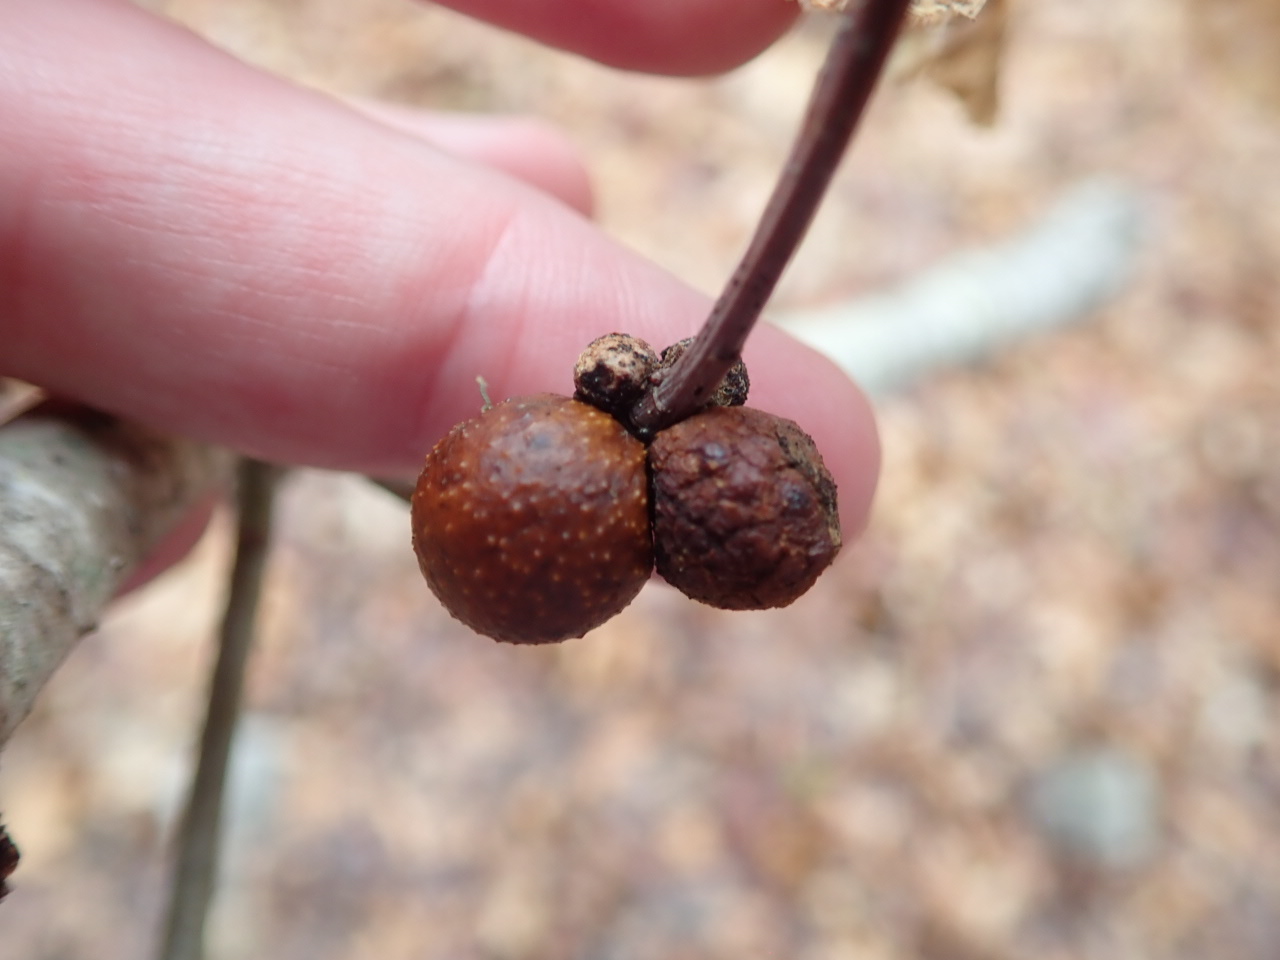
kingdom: Animalia
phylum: Arthropoda
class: Insecta
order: Hymenoptera
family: Cynipidae
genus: Disholcaspis
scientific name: Disholcaspis quercusglobulus
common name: Round bullet gall wasp
